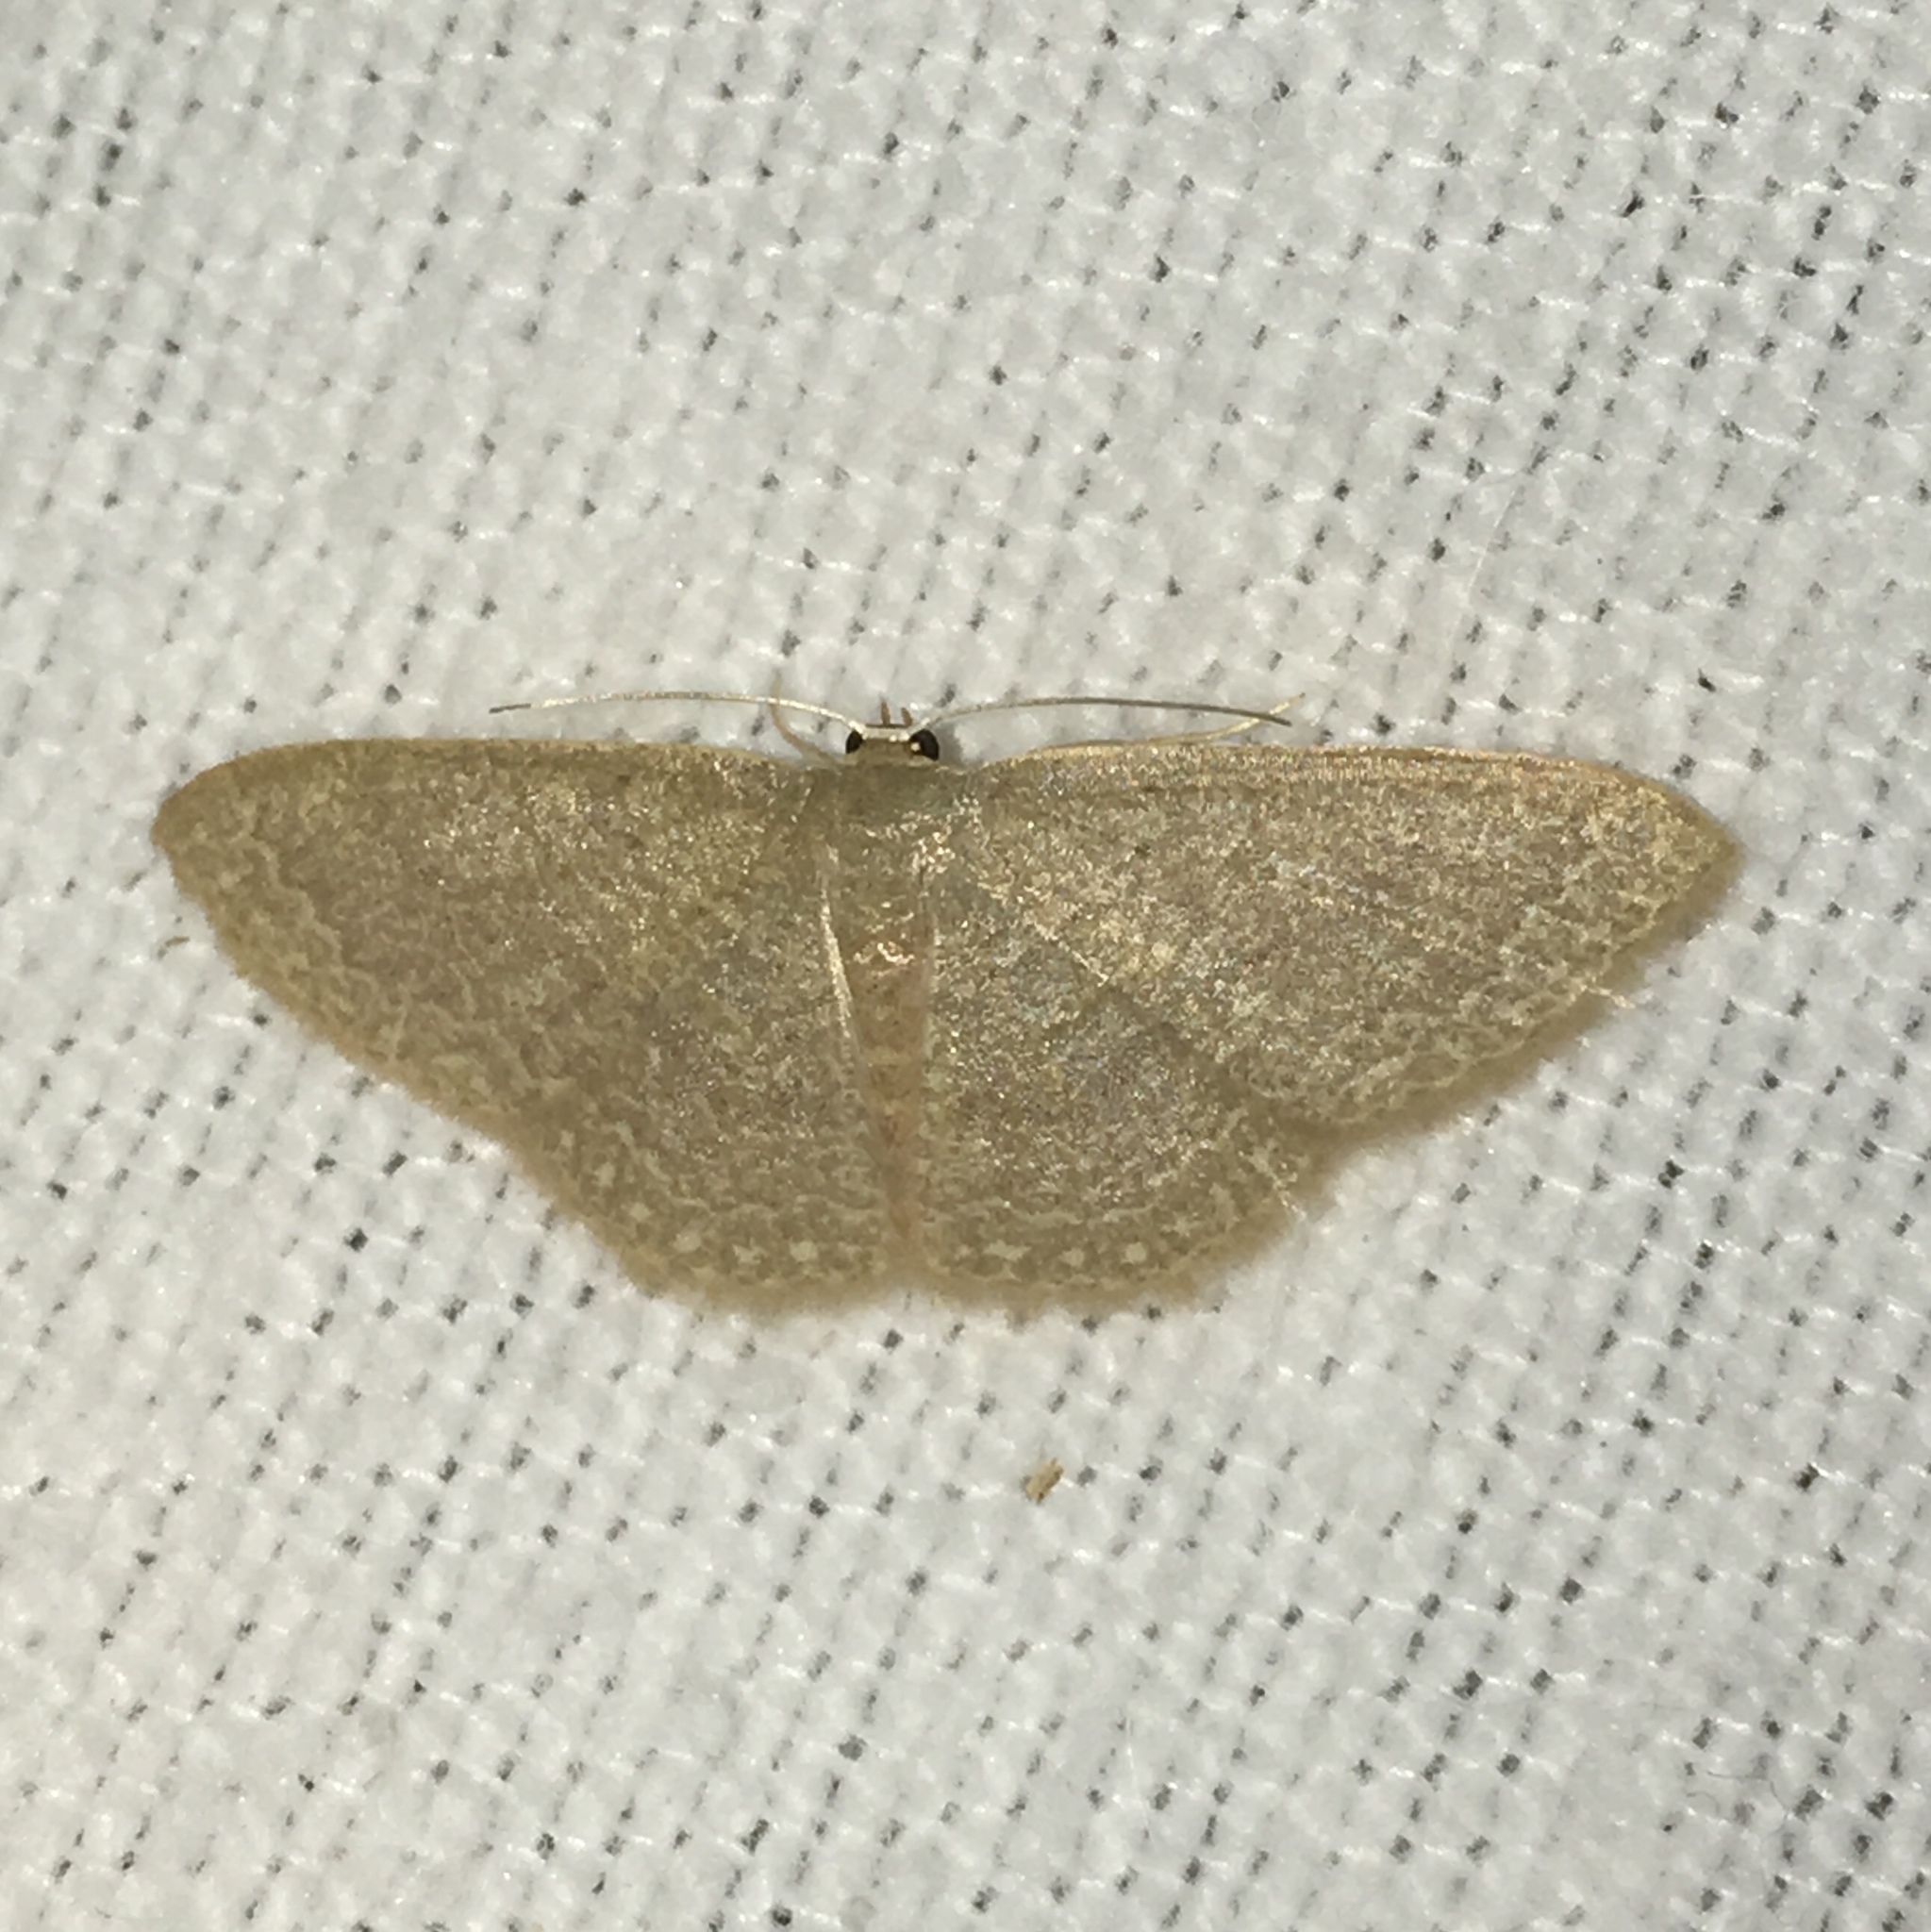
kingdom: Animalia
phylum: Arthropoda
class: Insecta
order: Lepidoptera
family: Geometridae
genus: Pleuroprucha
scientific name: Pleuroprucha insulsaria
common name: Common tan wave
